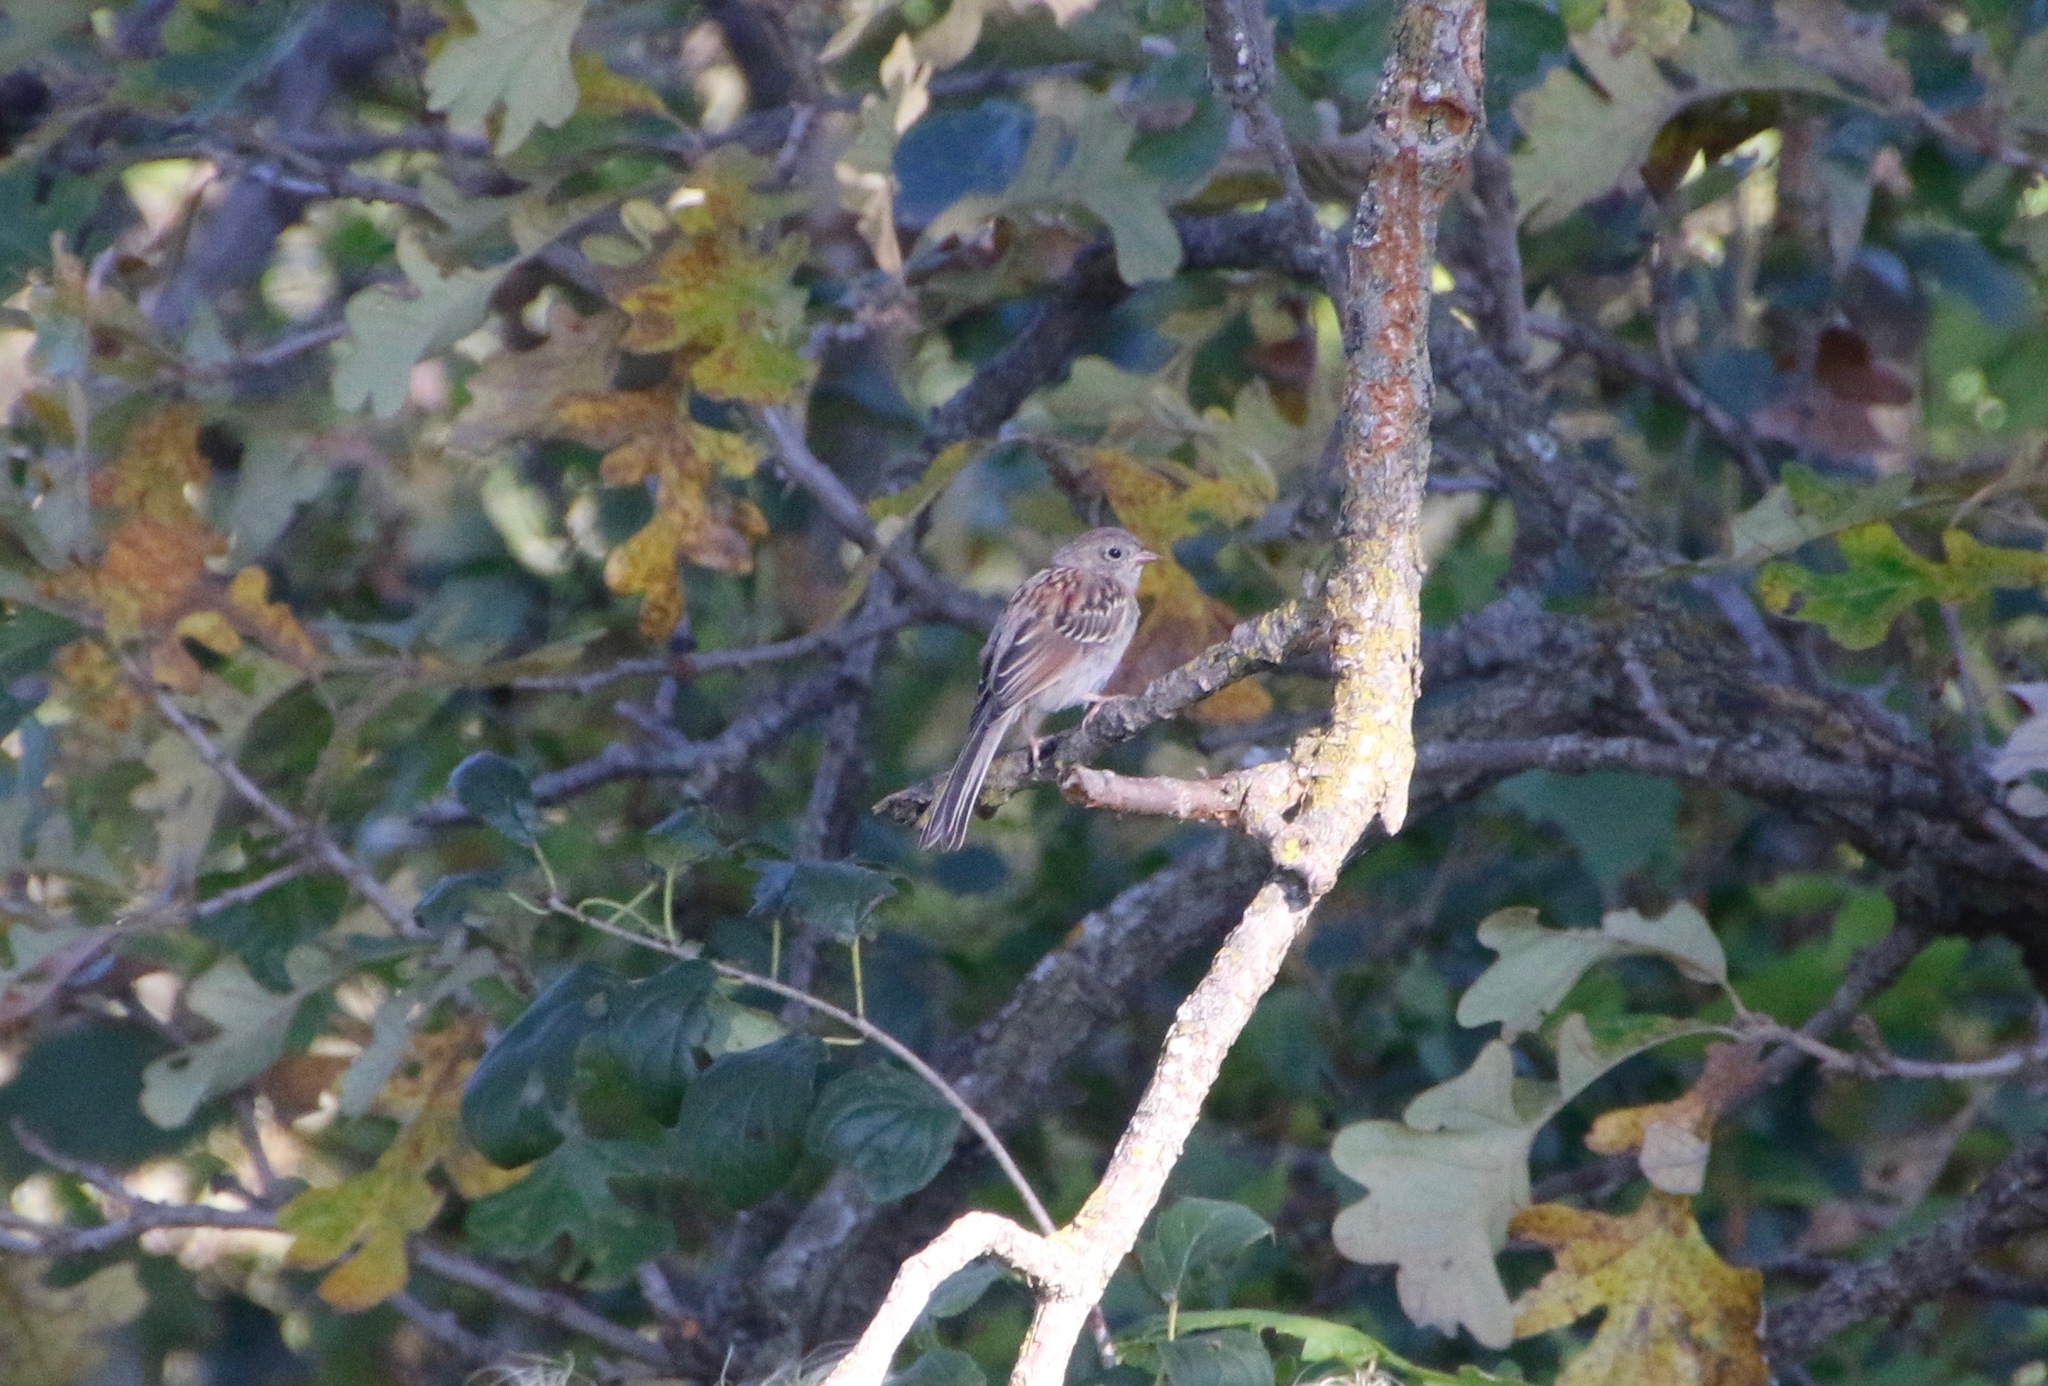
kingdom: Animalia
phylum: Chordata
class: Aves
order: Passeriformes
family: Passerellidae
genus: Spizella
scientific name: Spizella pusilla
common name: Field sparrow
